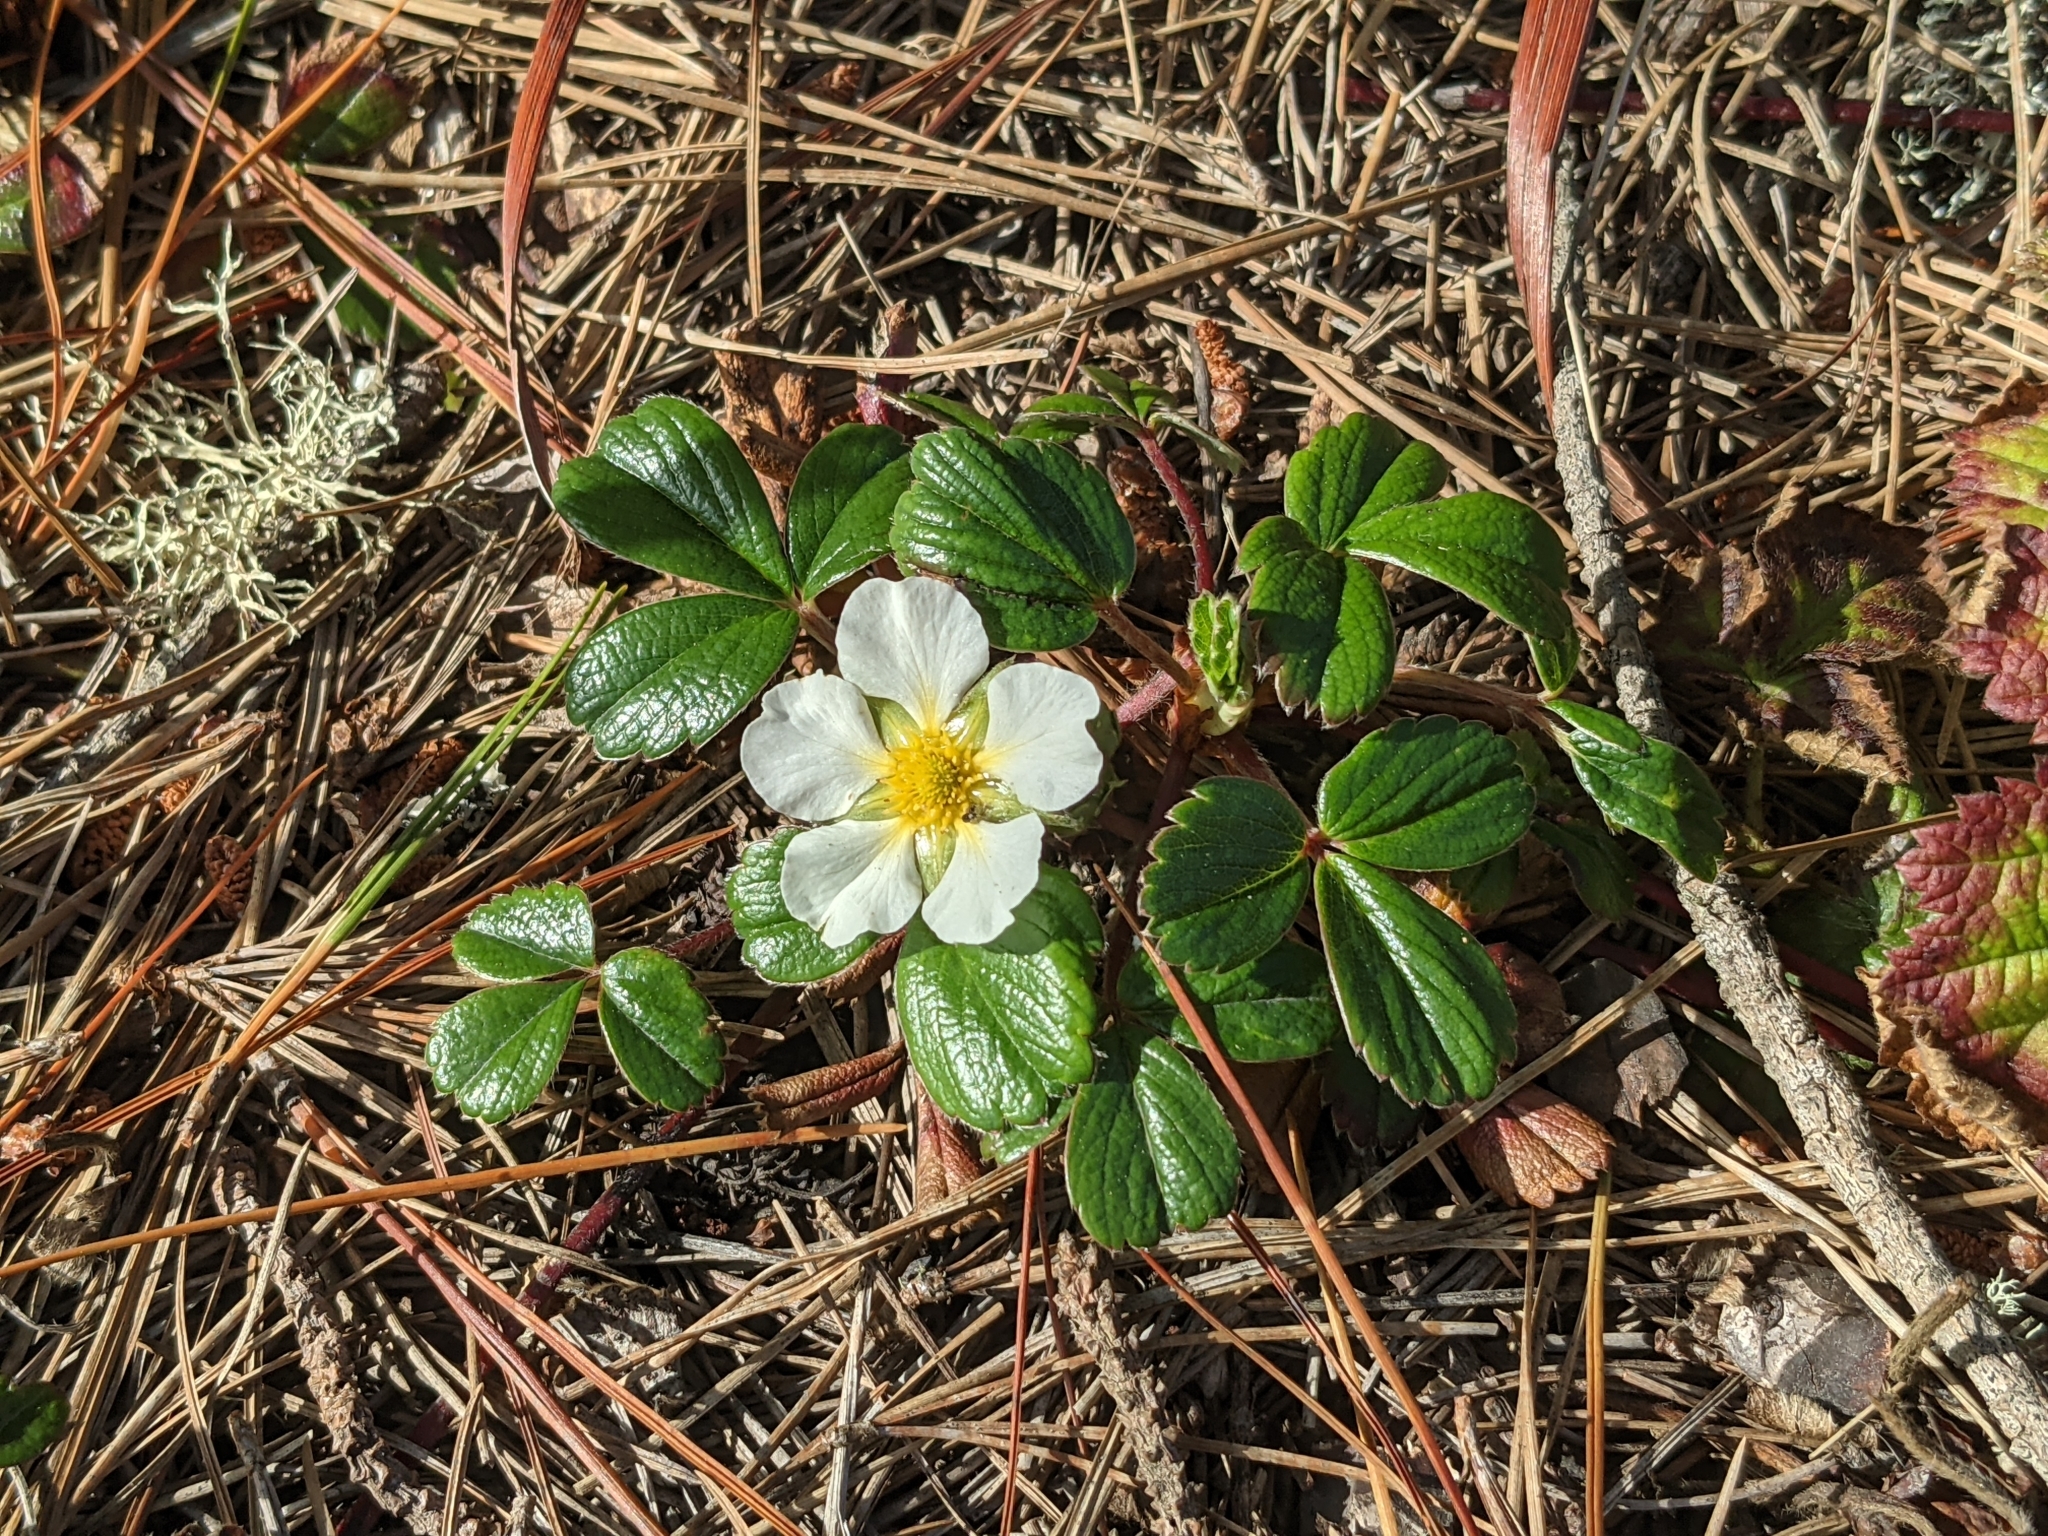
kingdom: Plantae
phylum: Tracheophyta
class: Magnoliopsida
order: Rosales
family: Rosaceae
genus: Fragaria
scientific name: Fragaria chiloensis
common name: Beach strawberry
